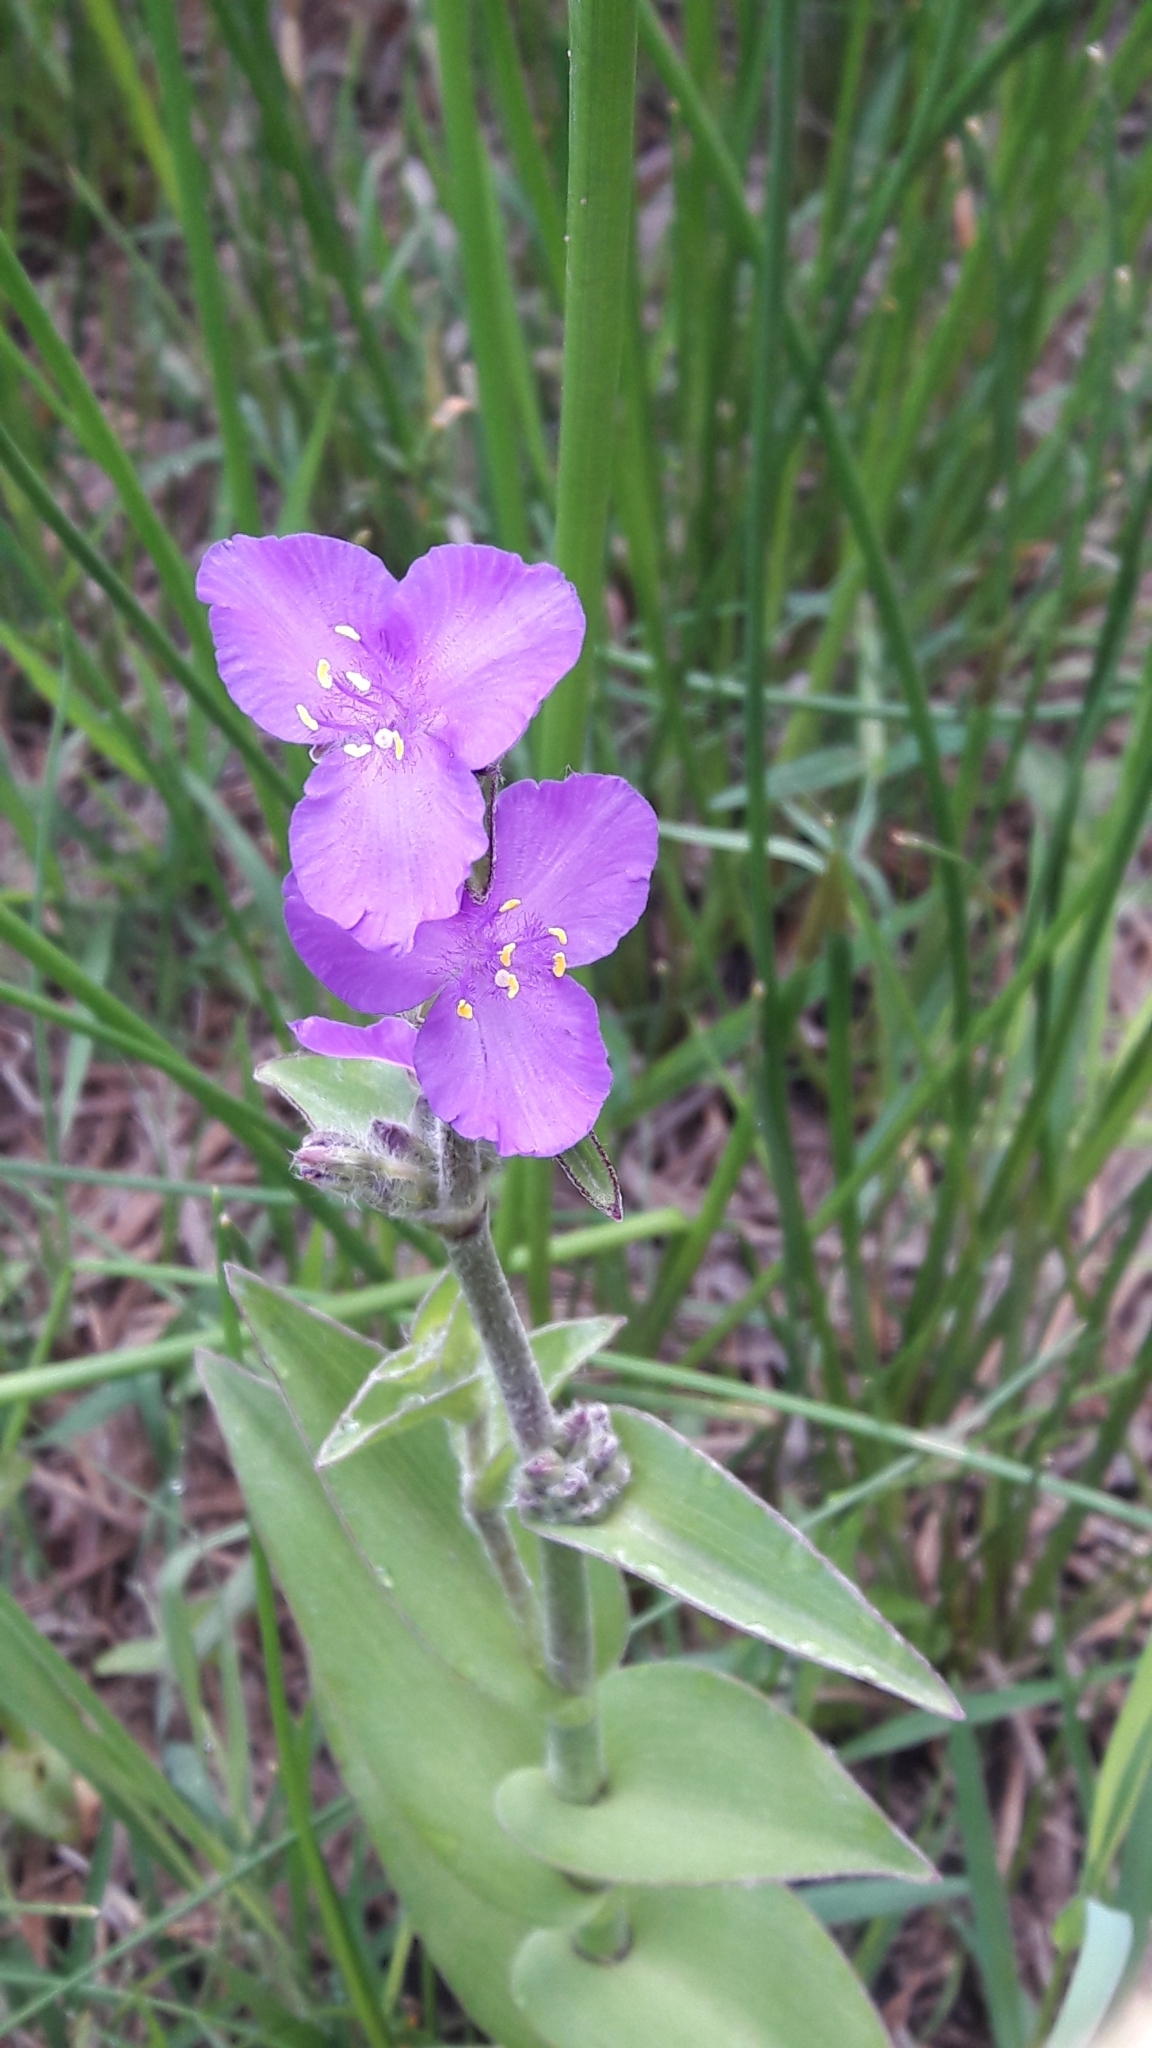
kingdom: Plantae
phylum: Tracheophyta
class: Liliopsida
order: Commelinales
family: Commelinaceae
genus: Tradescantia
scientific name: Tradescantia crassifolia
